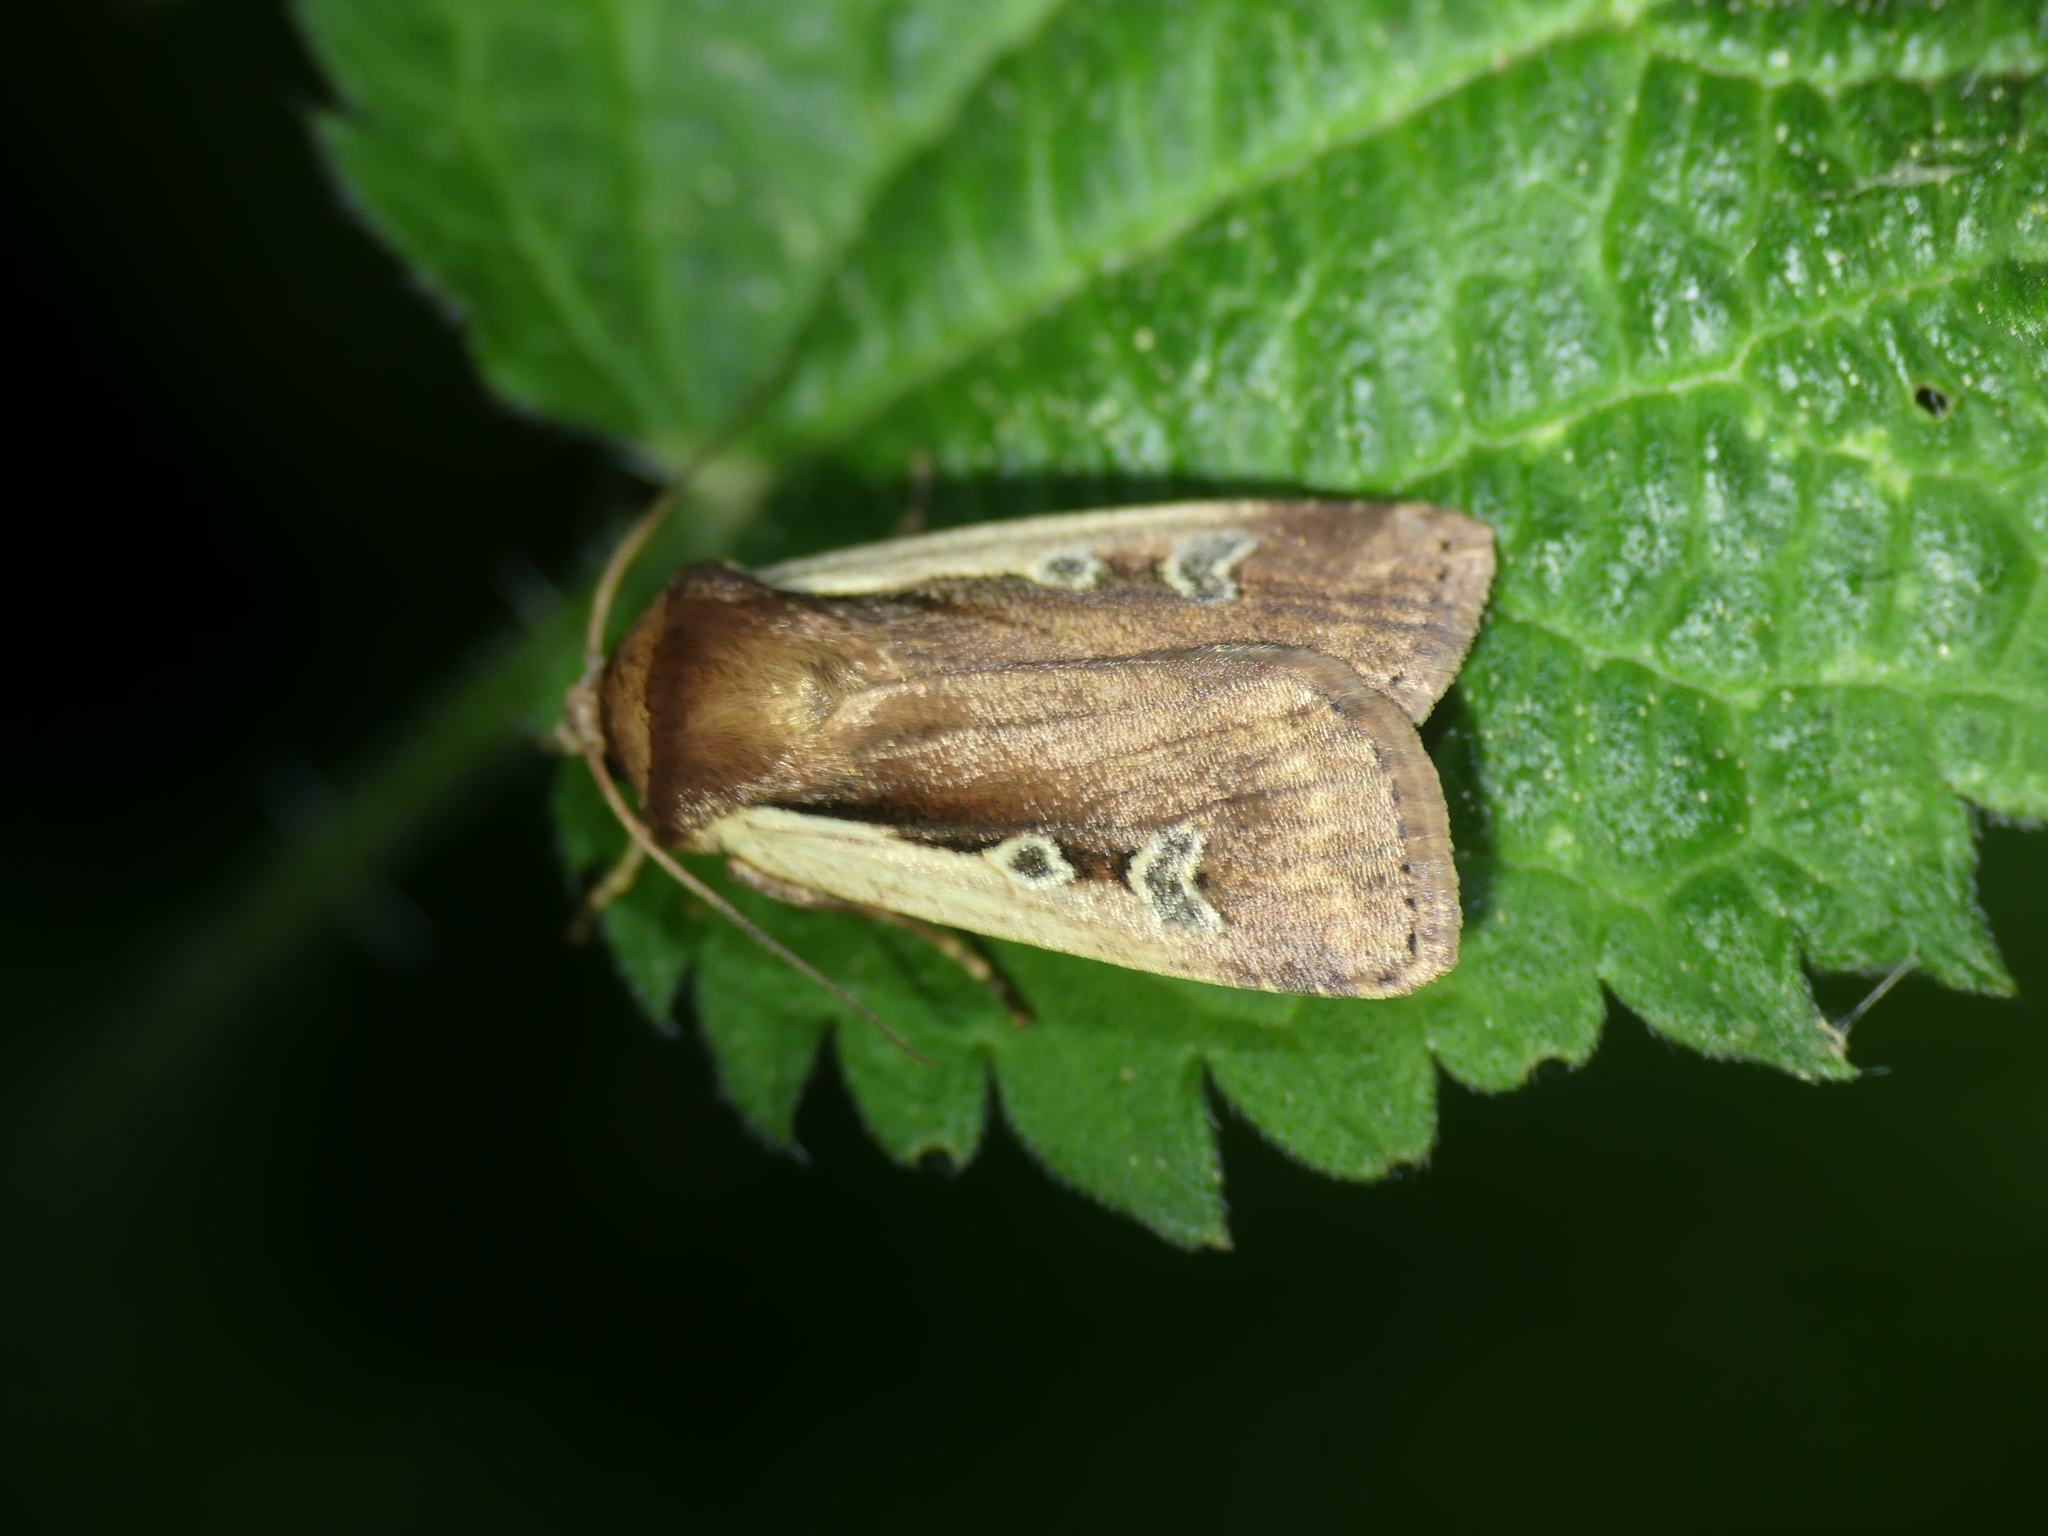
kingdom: Animalia
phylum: Arthropoda
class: Insecta
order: Lepidoptera
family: Noctuidae
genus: Ochropleura
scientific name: Ochropleura plecta
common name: Flame shoulder
